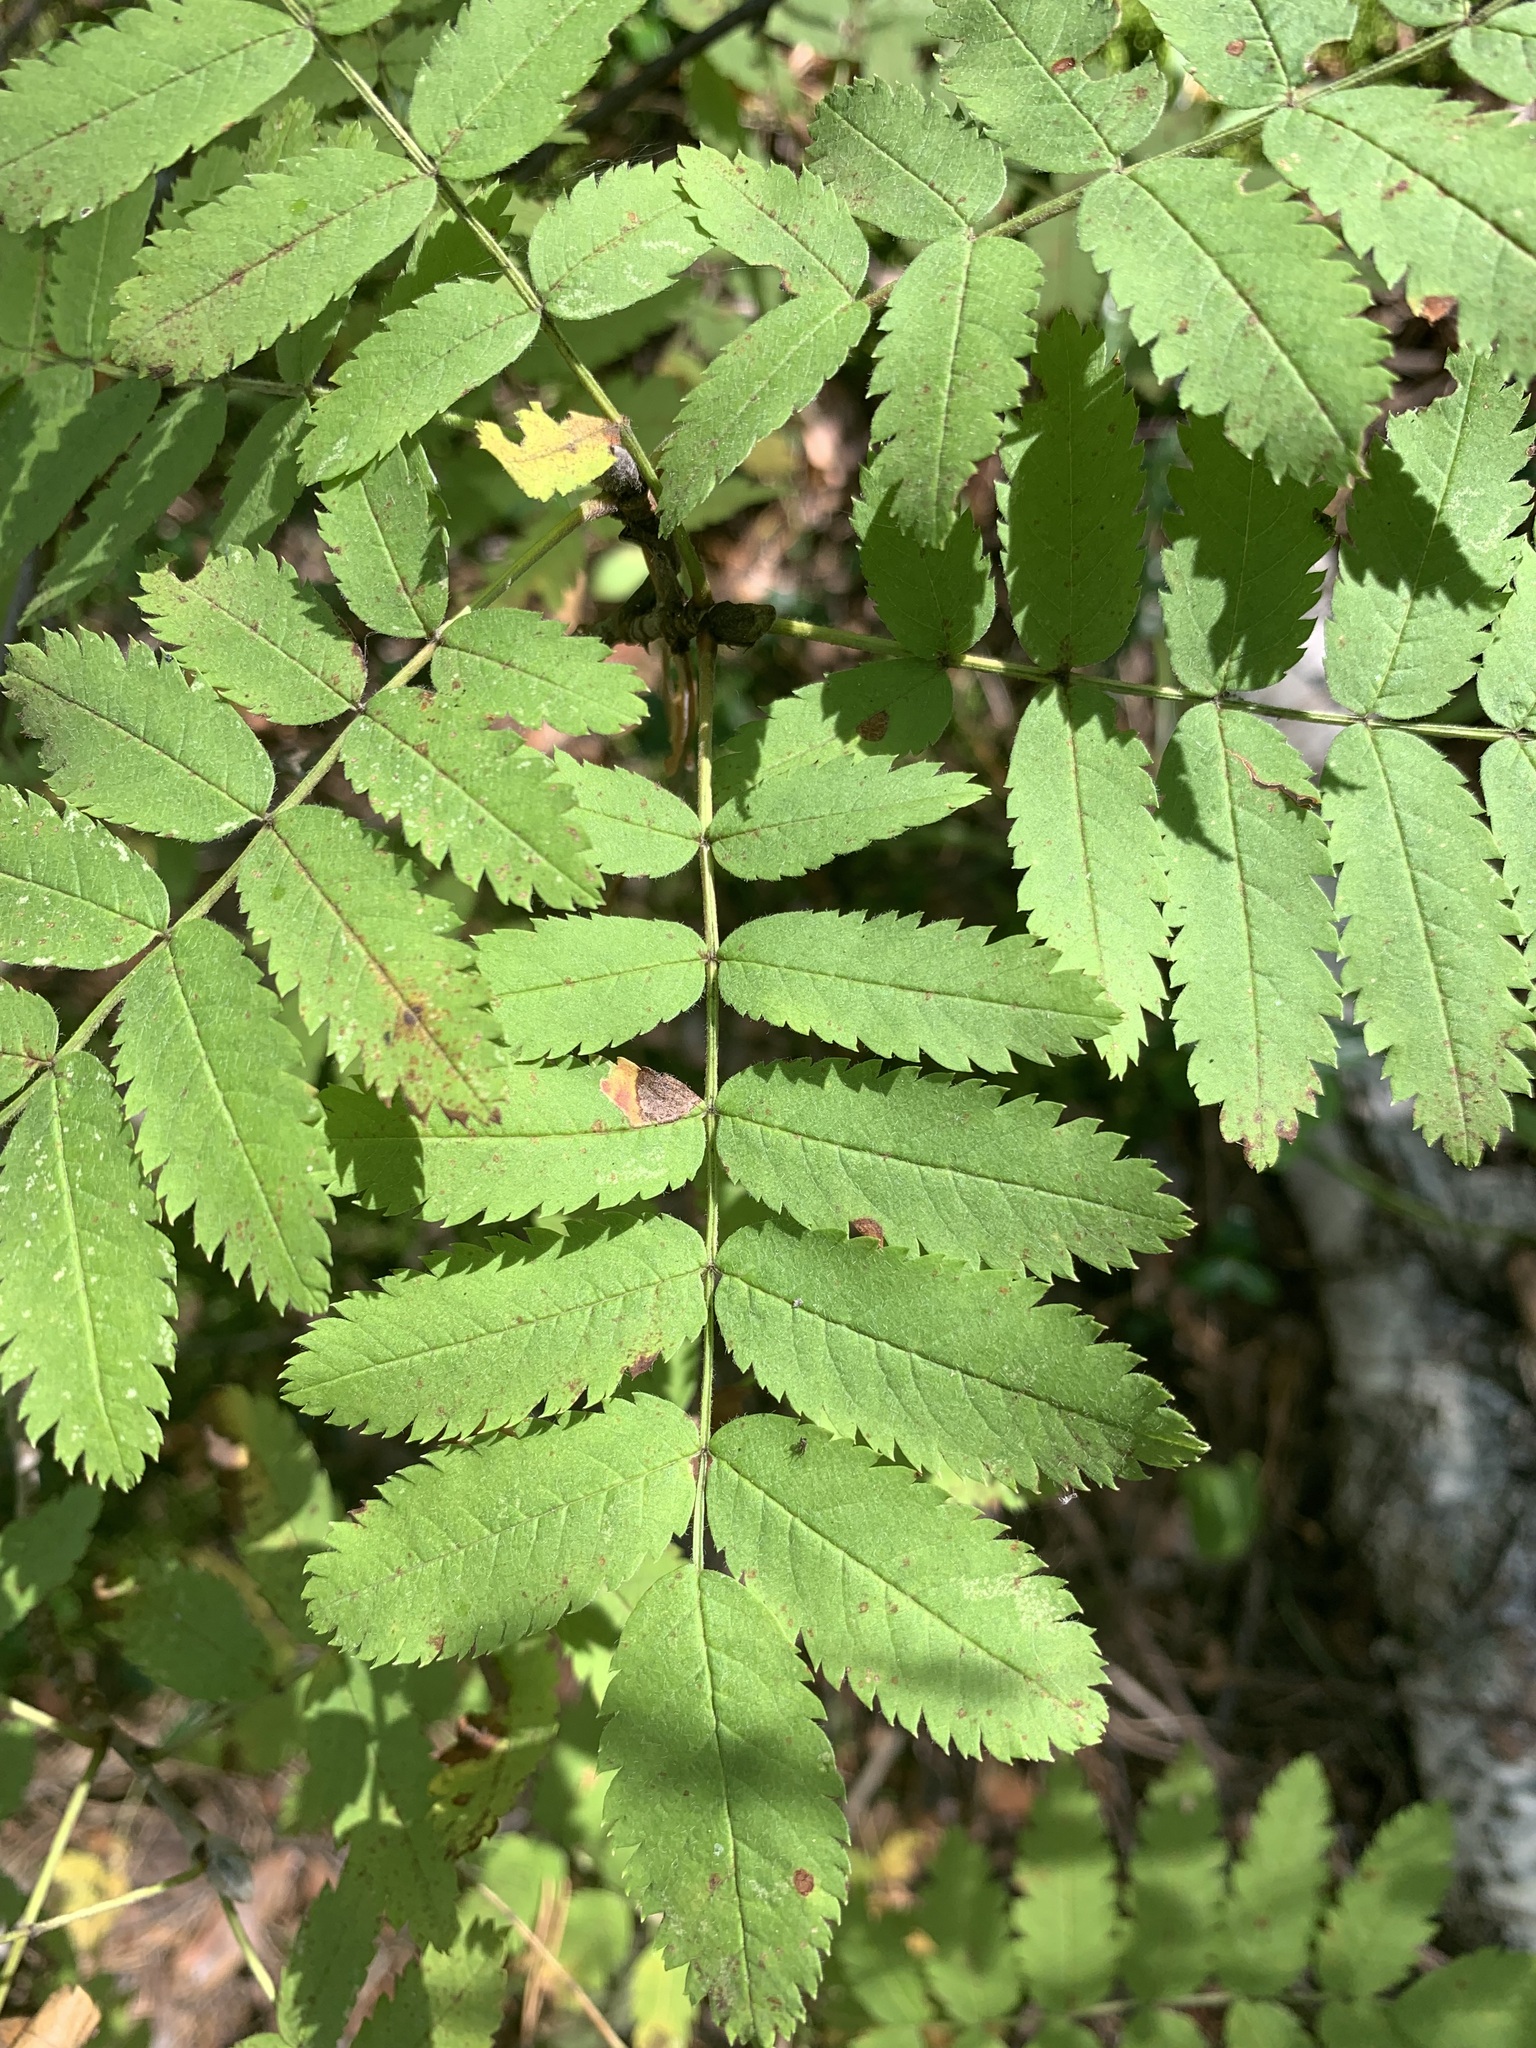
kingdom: Plantae
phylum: Tracheophyta
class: Magnoliopsida
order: Rosales
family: Rosaceae
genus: Sorbus
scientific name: Sorbus aucuparia
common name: Rowan
